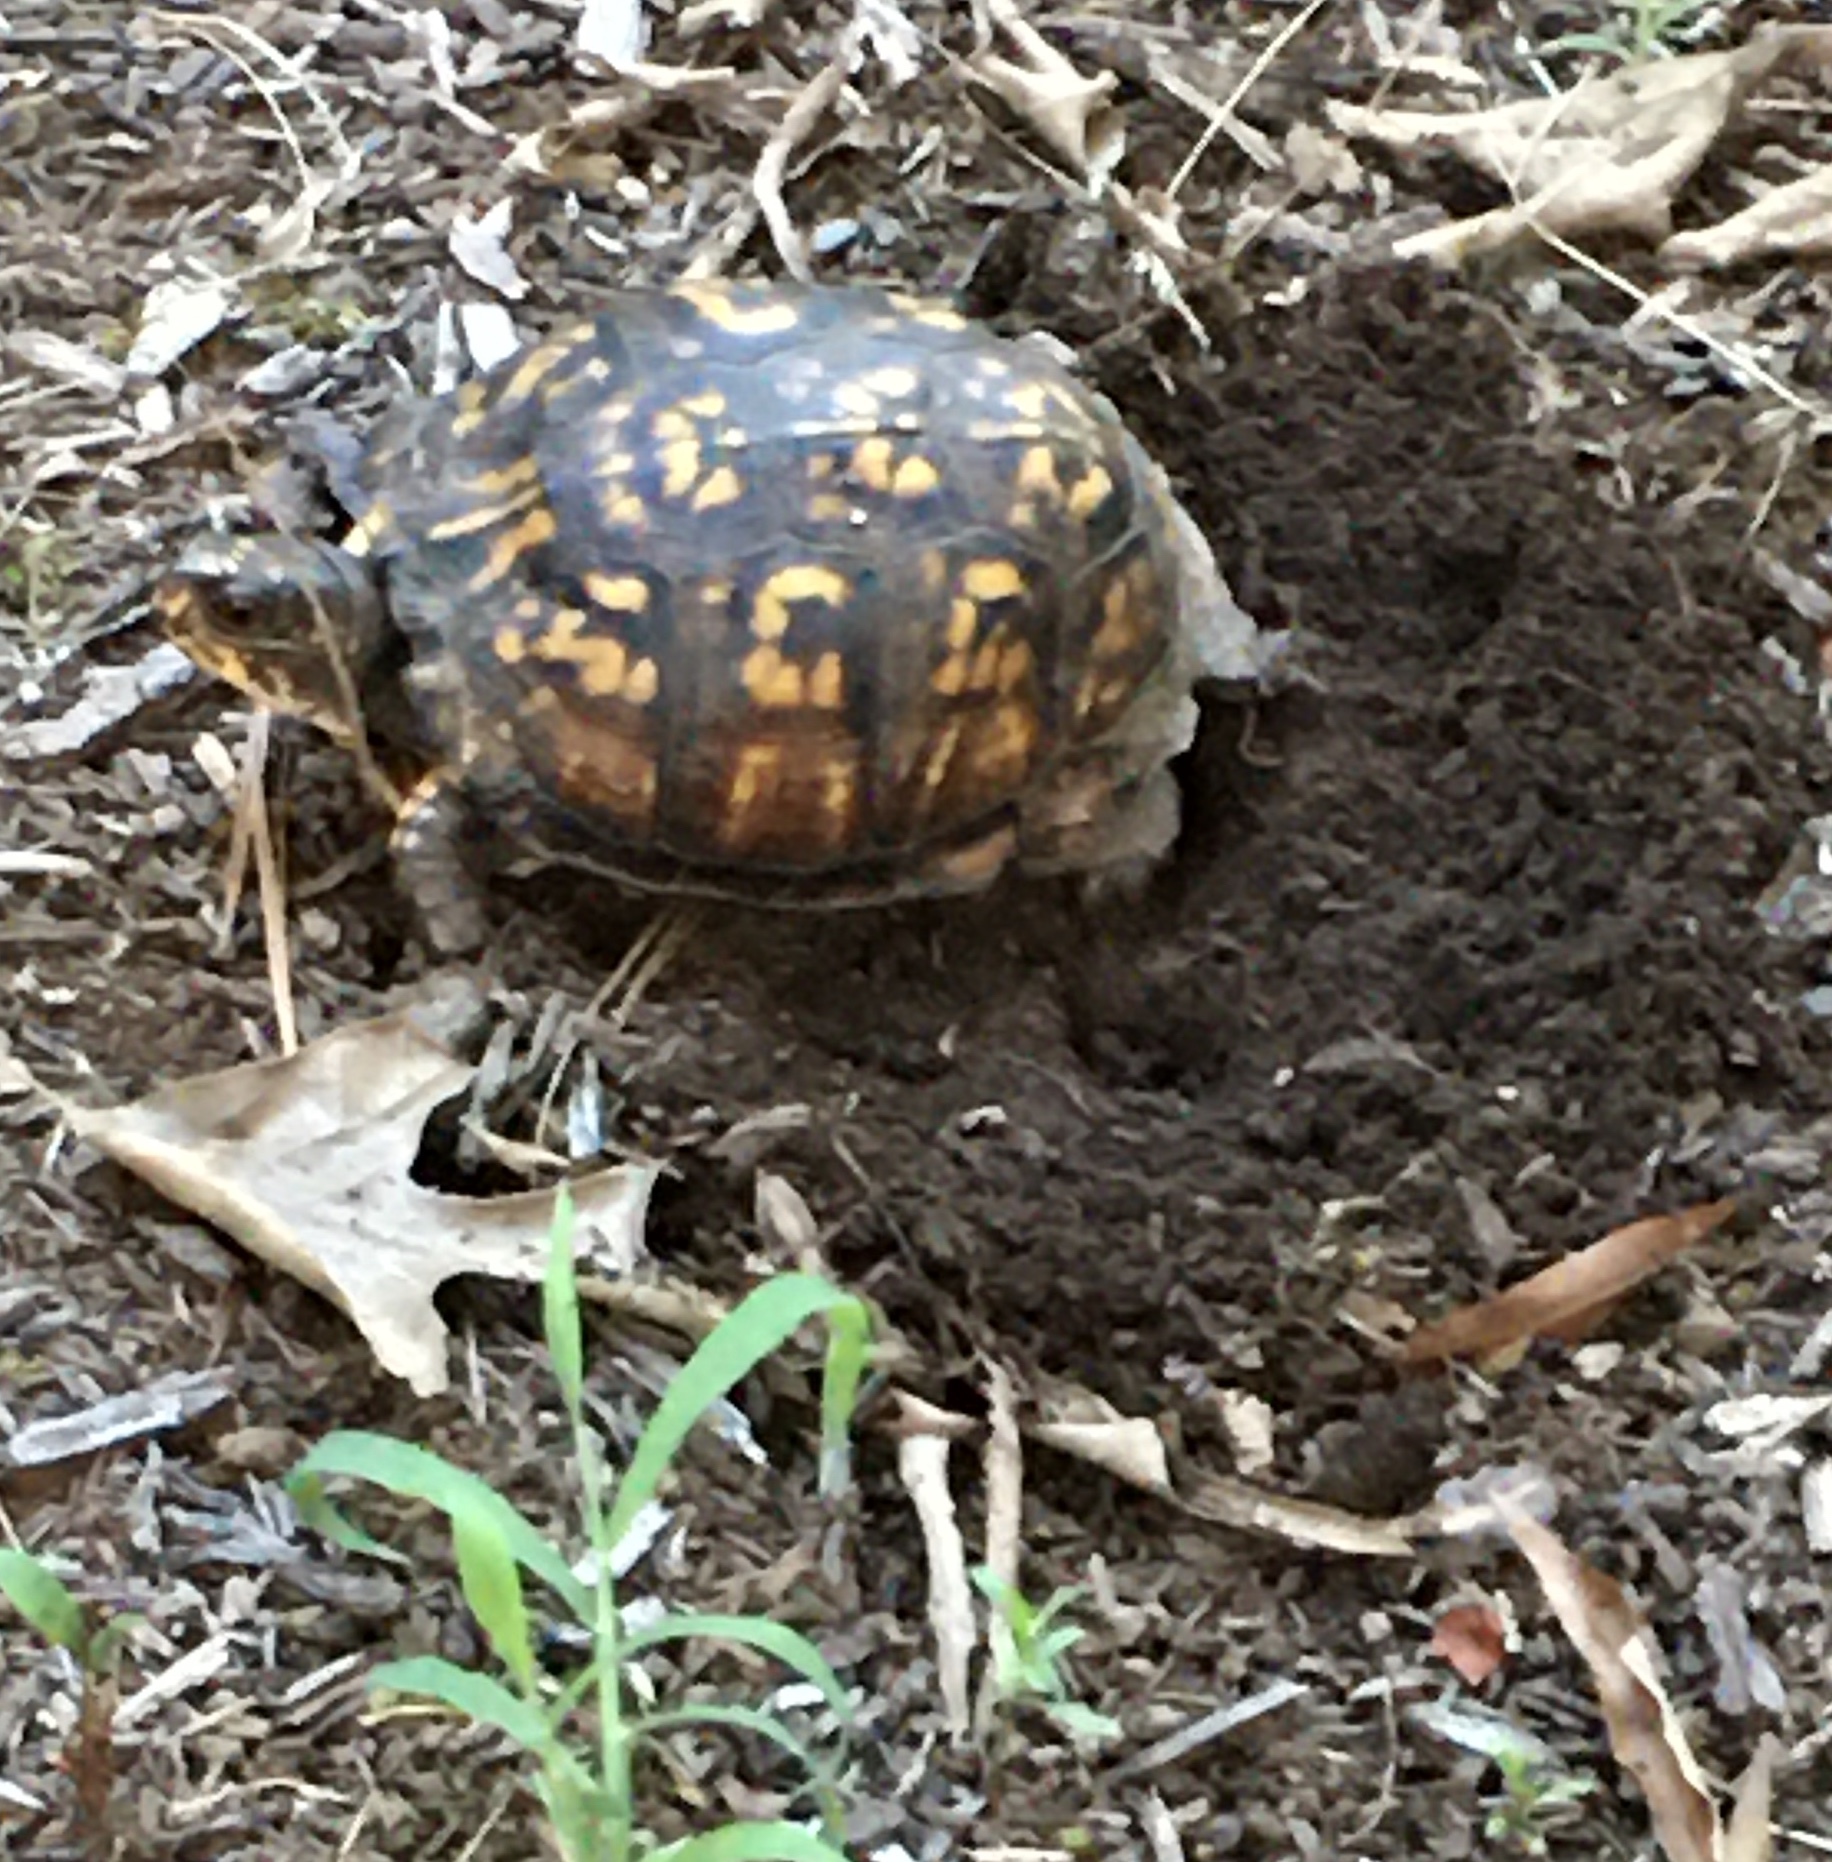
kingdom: Animalia
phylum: Chordata
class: Testudines
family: Emydidae
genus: Terrapene
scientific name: Terrapene carolina
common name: Common box turtle
